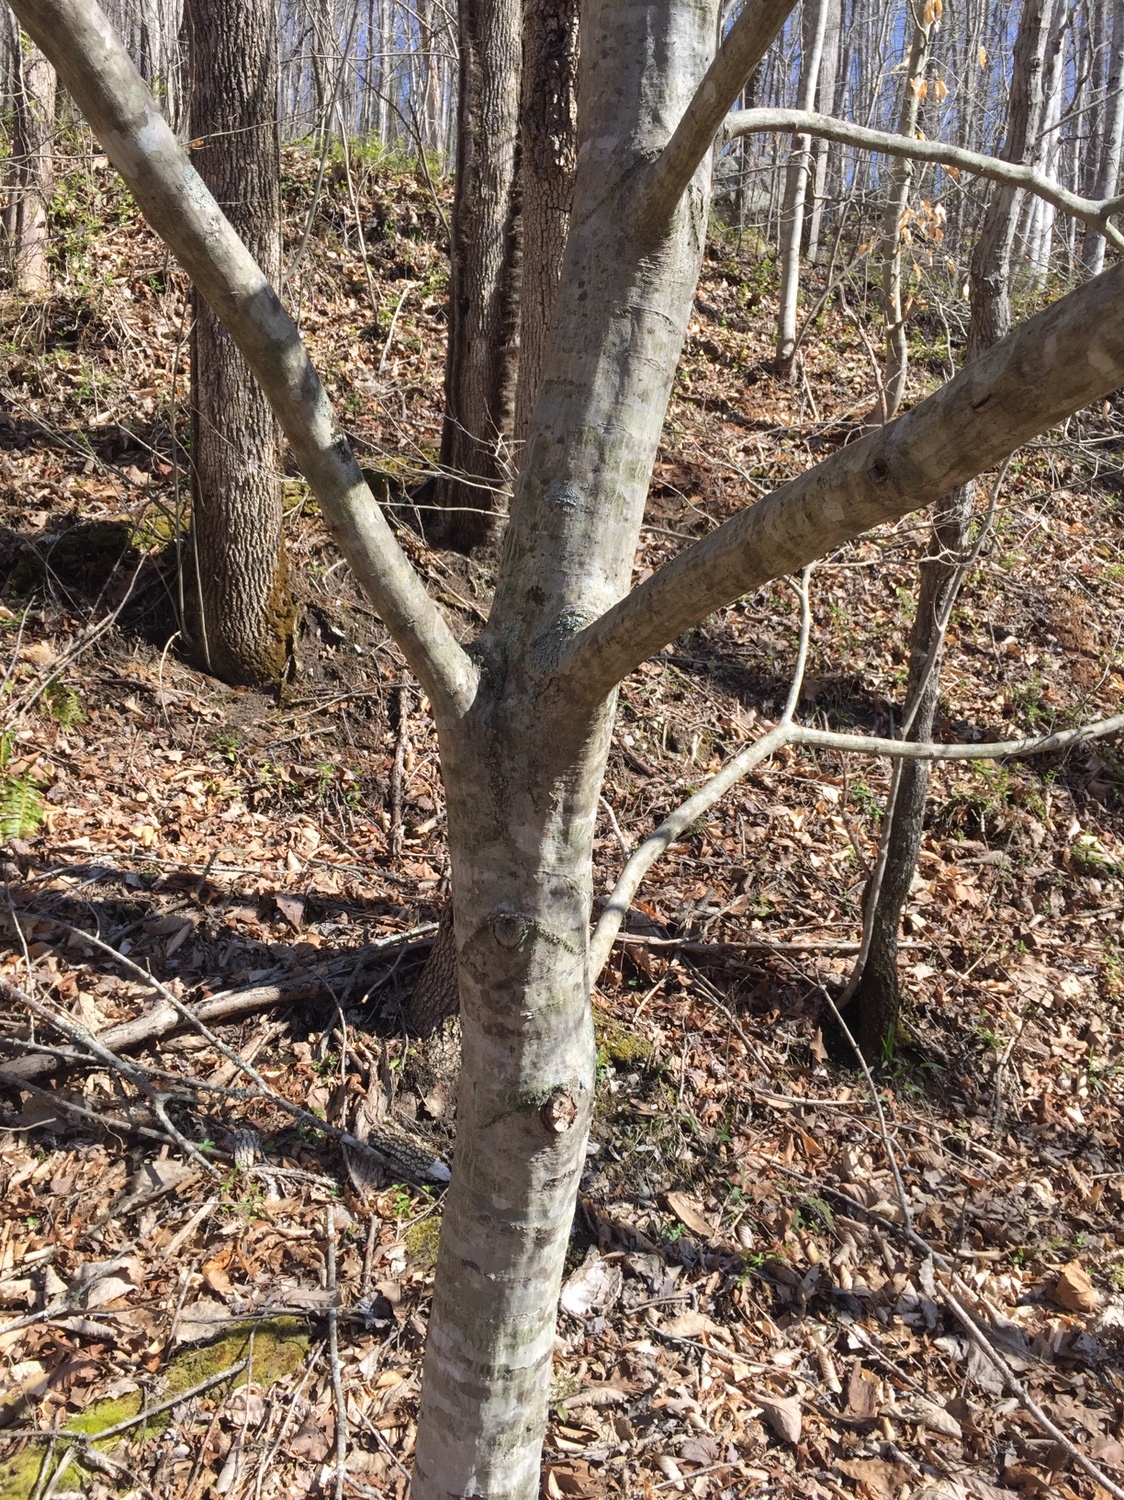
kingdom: Plantae
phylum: Tracheophyta
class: Magnoliopsida
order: Fagales
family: Betulaceae
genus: Carpinus
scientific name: Carpinus caroliniana
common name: American hornbeam
